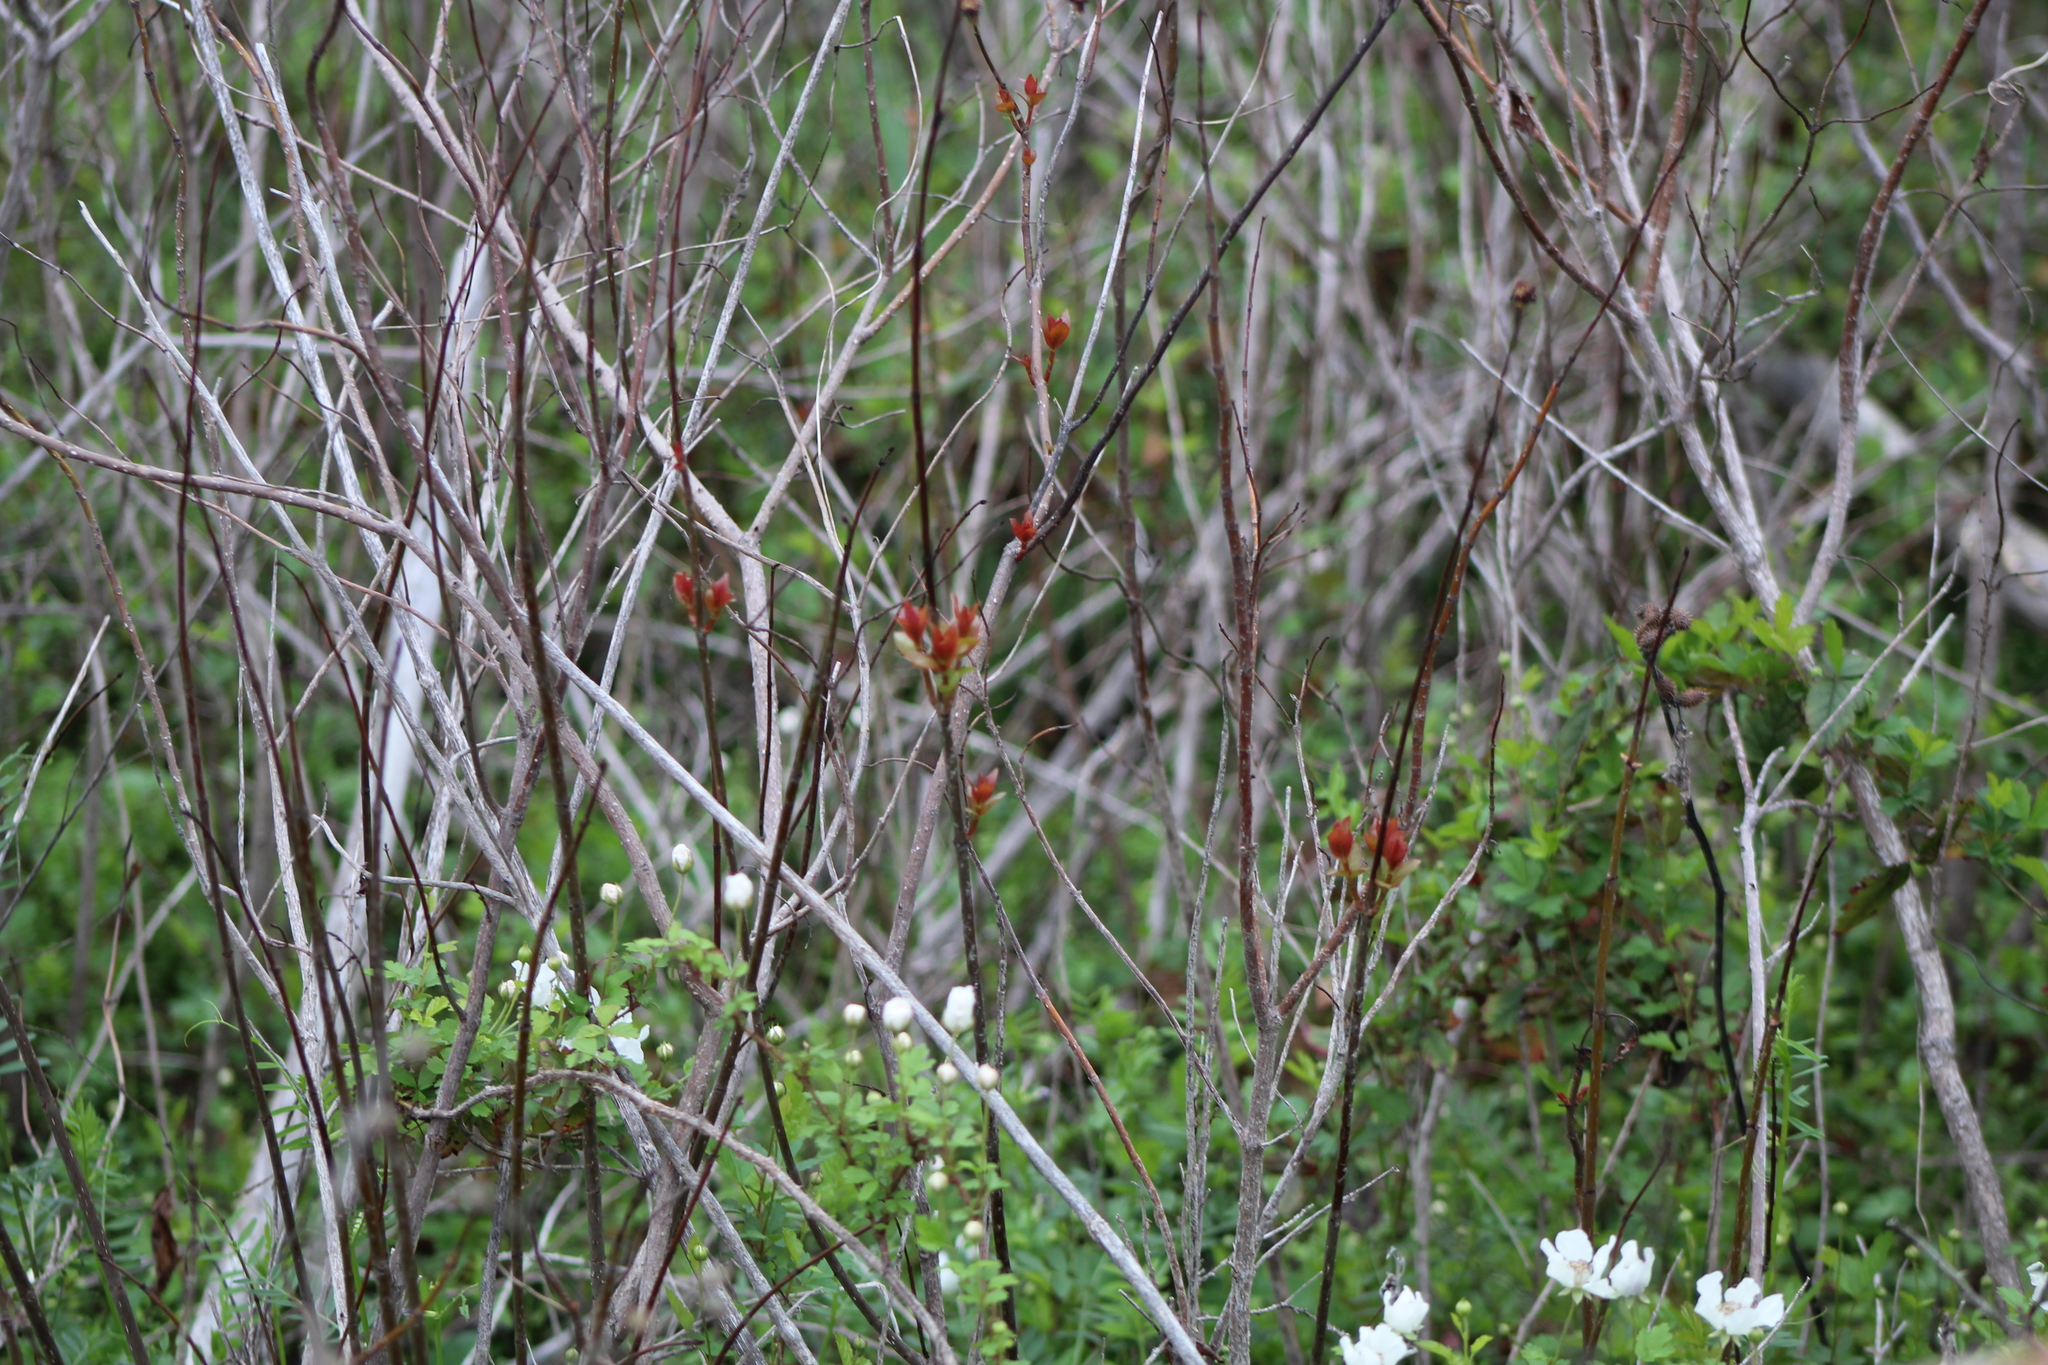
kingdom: Plantae
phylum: Tracheophyta
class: Magnoliopsida
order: Gentianales
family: Rubiaceae
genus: Cephalanthus
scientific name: Cephalanthus occidentalis
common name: Button-willow
